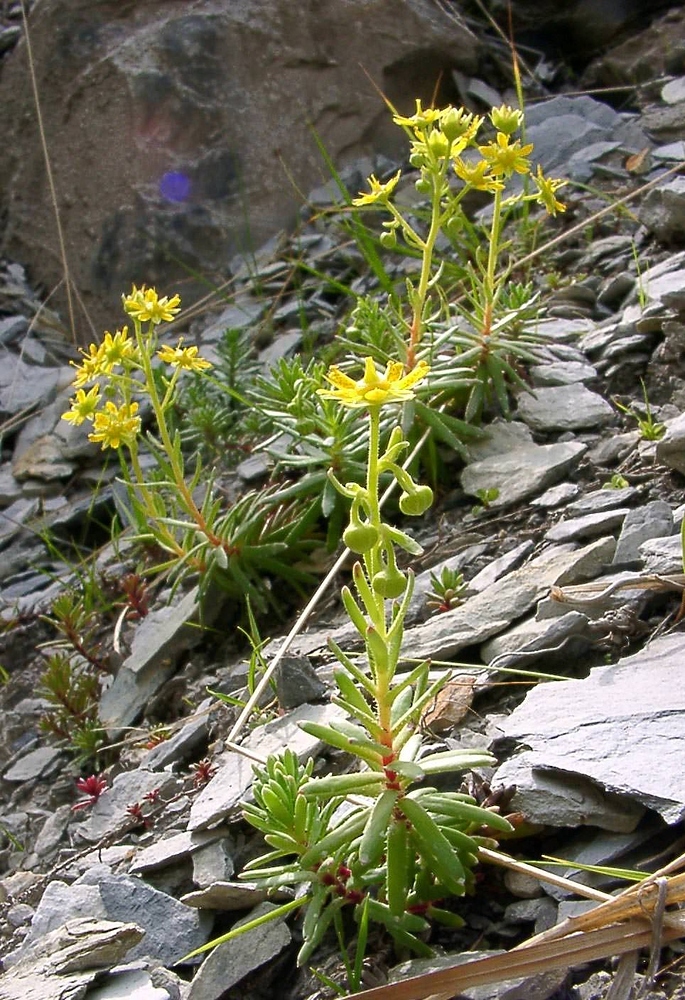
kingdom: Plantae
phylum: Tracheophyta
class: Magnoliopsida
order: Saxifragales
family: Saxifragaceae
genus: Saxifraga
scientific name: Saxifraga aizoides
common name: Yellow mountain saxifrage
